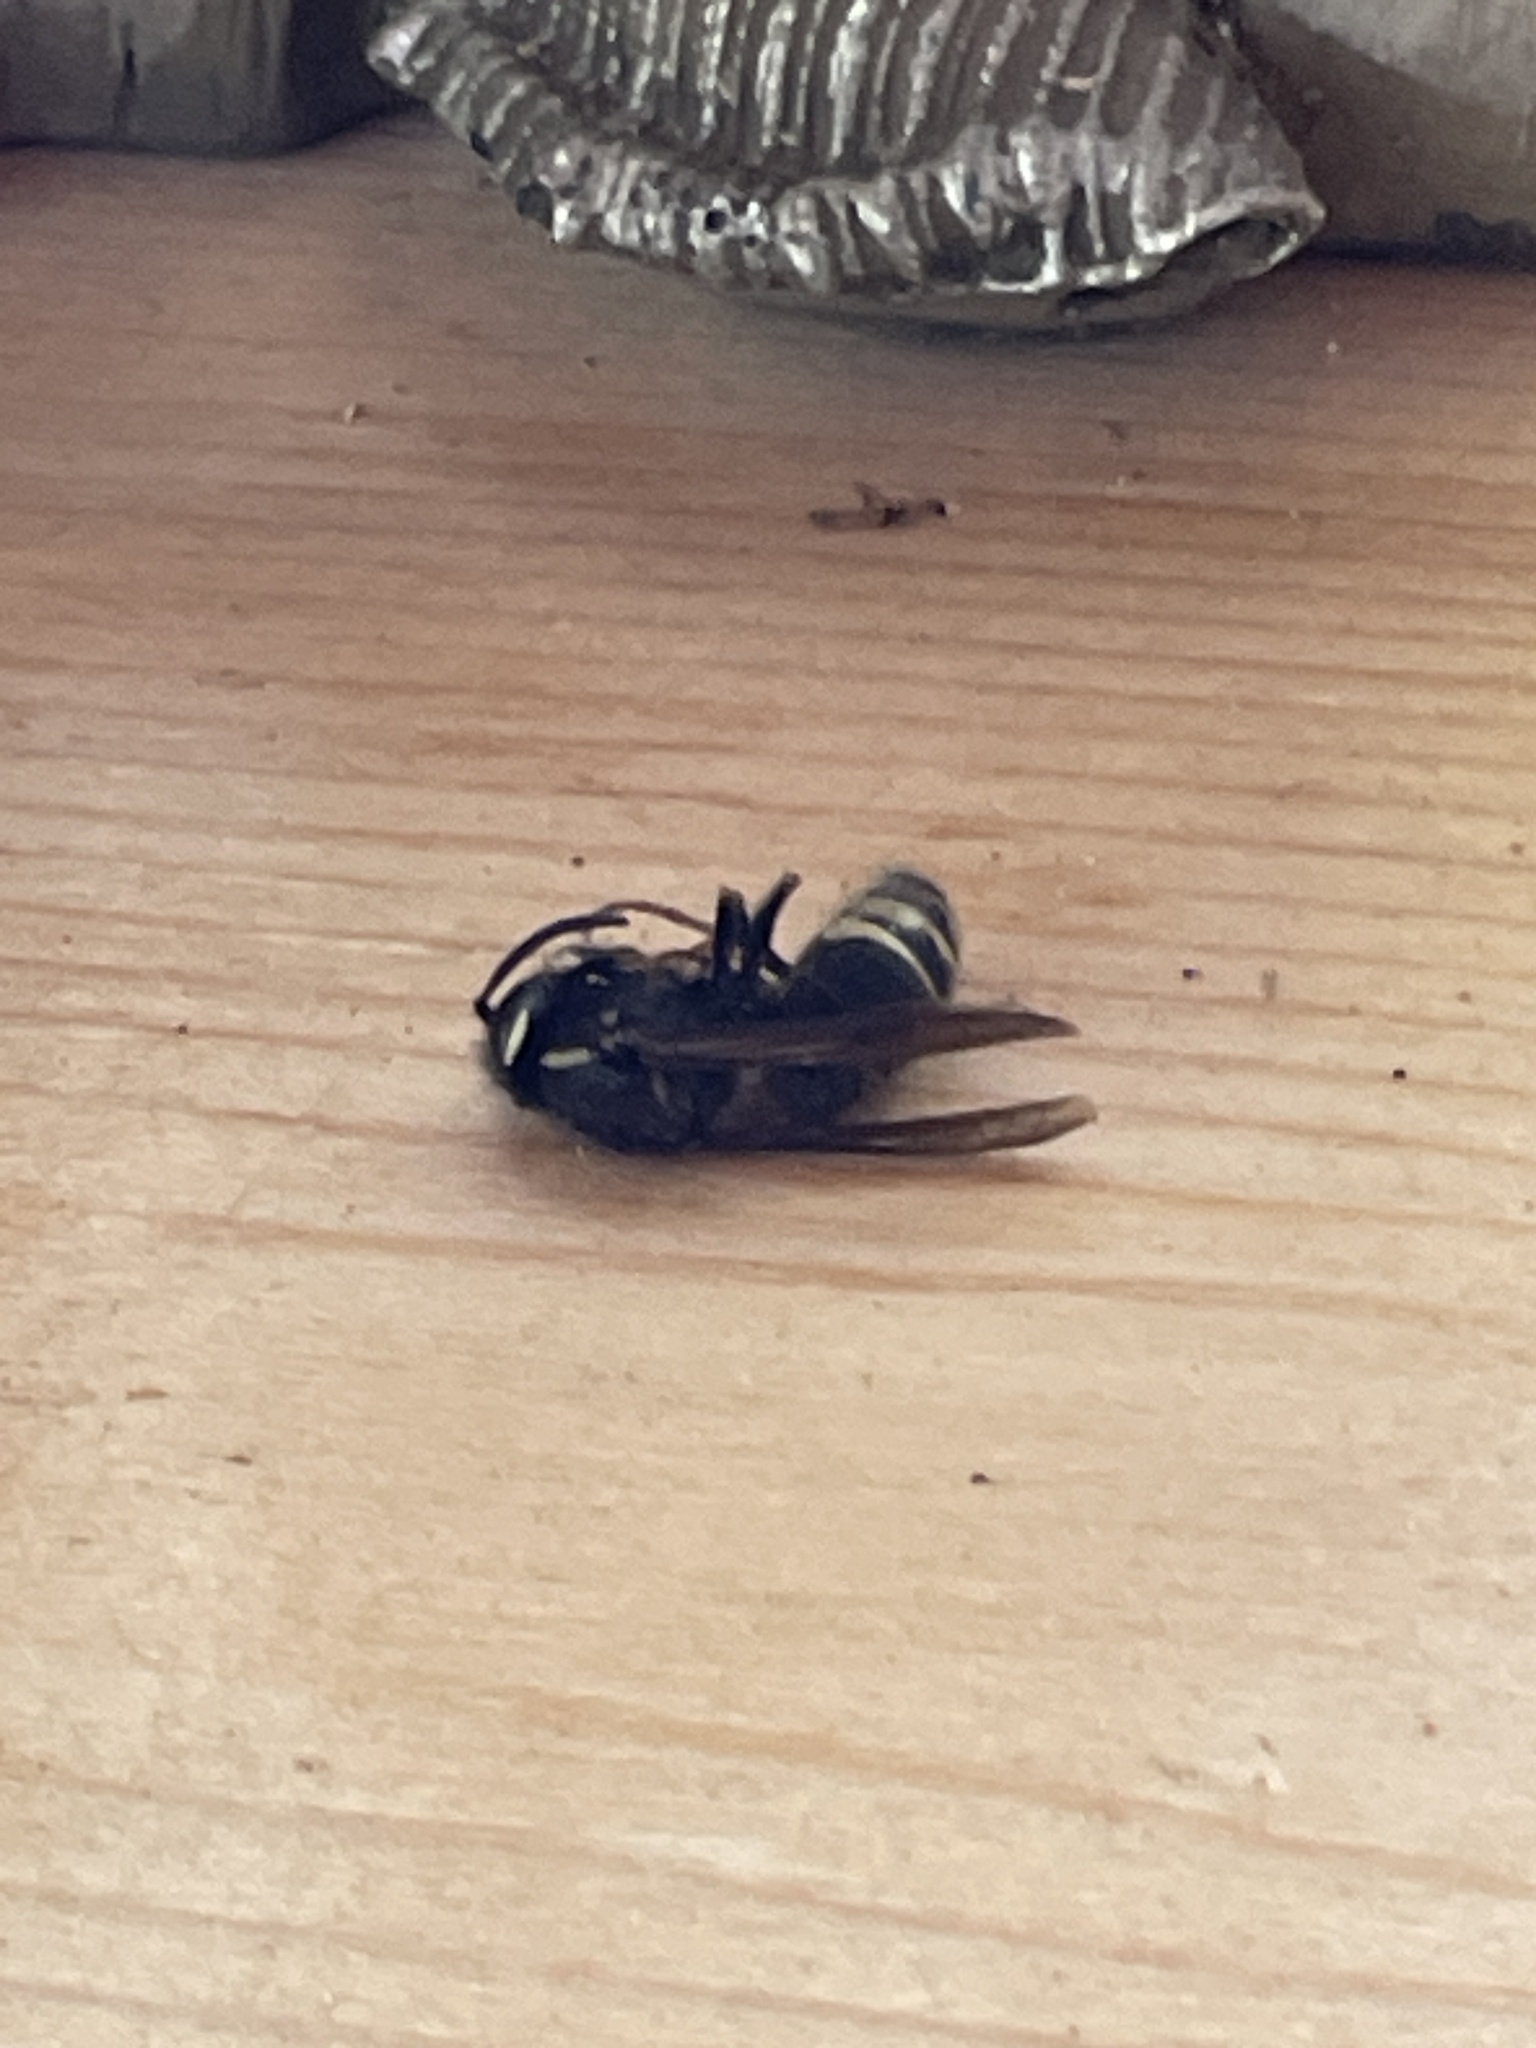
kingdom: Animalia
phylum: Arthropoda
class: Insecta
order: Hymenoptera
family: Vespidae
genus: Vespula
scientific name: Vespula consobrina
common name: Blackjacket
